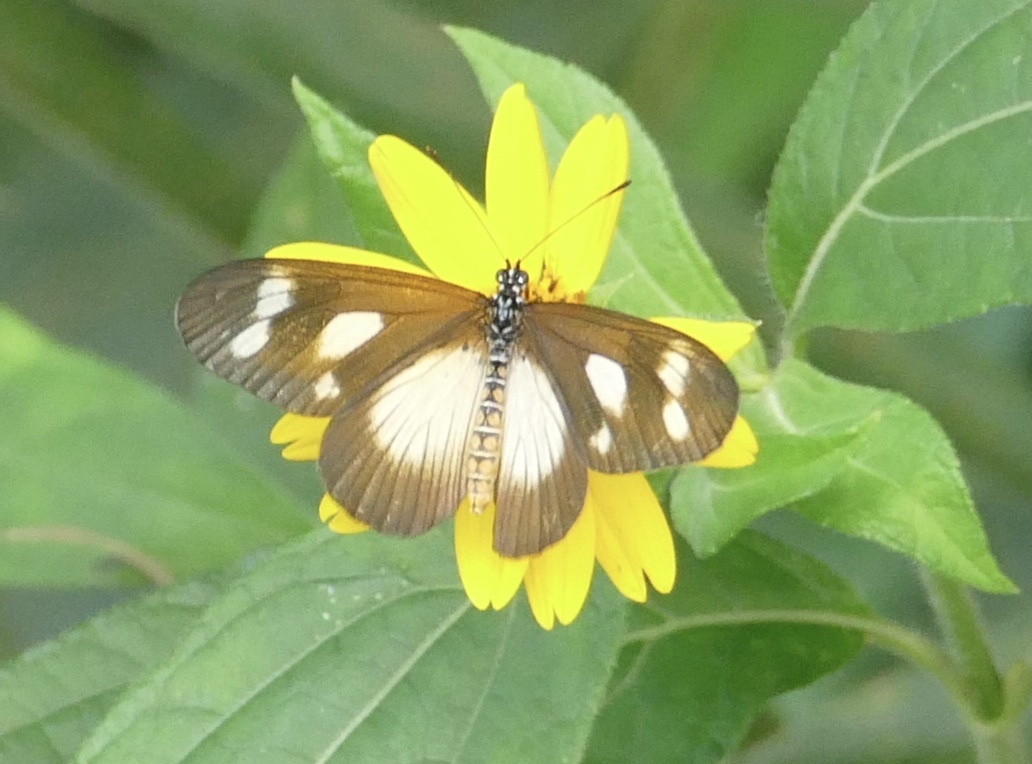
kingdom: Animalia
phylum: Arthropoda
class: Insecta
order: Lepidoptera
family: Nymphalidae
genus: Acraea
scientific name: Acraea Telchinia lycoa
